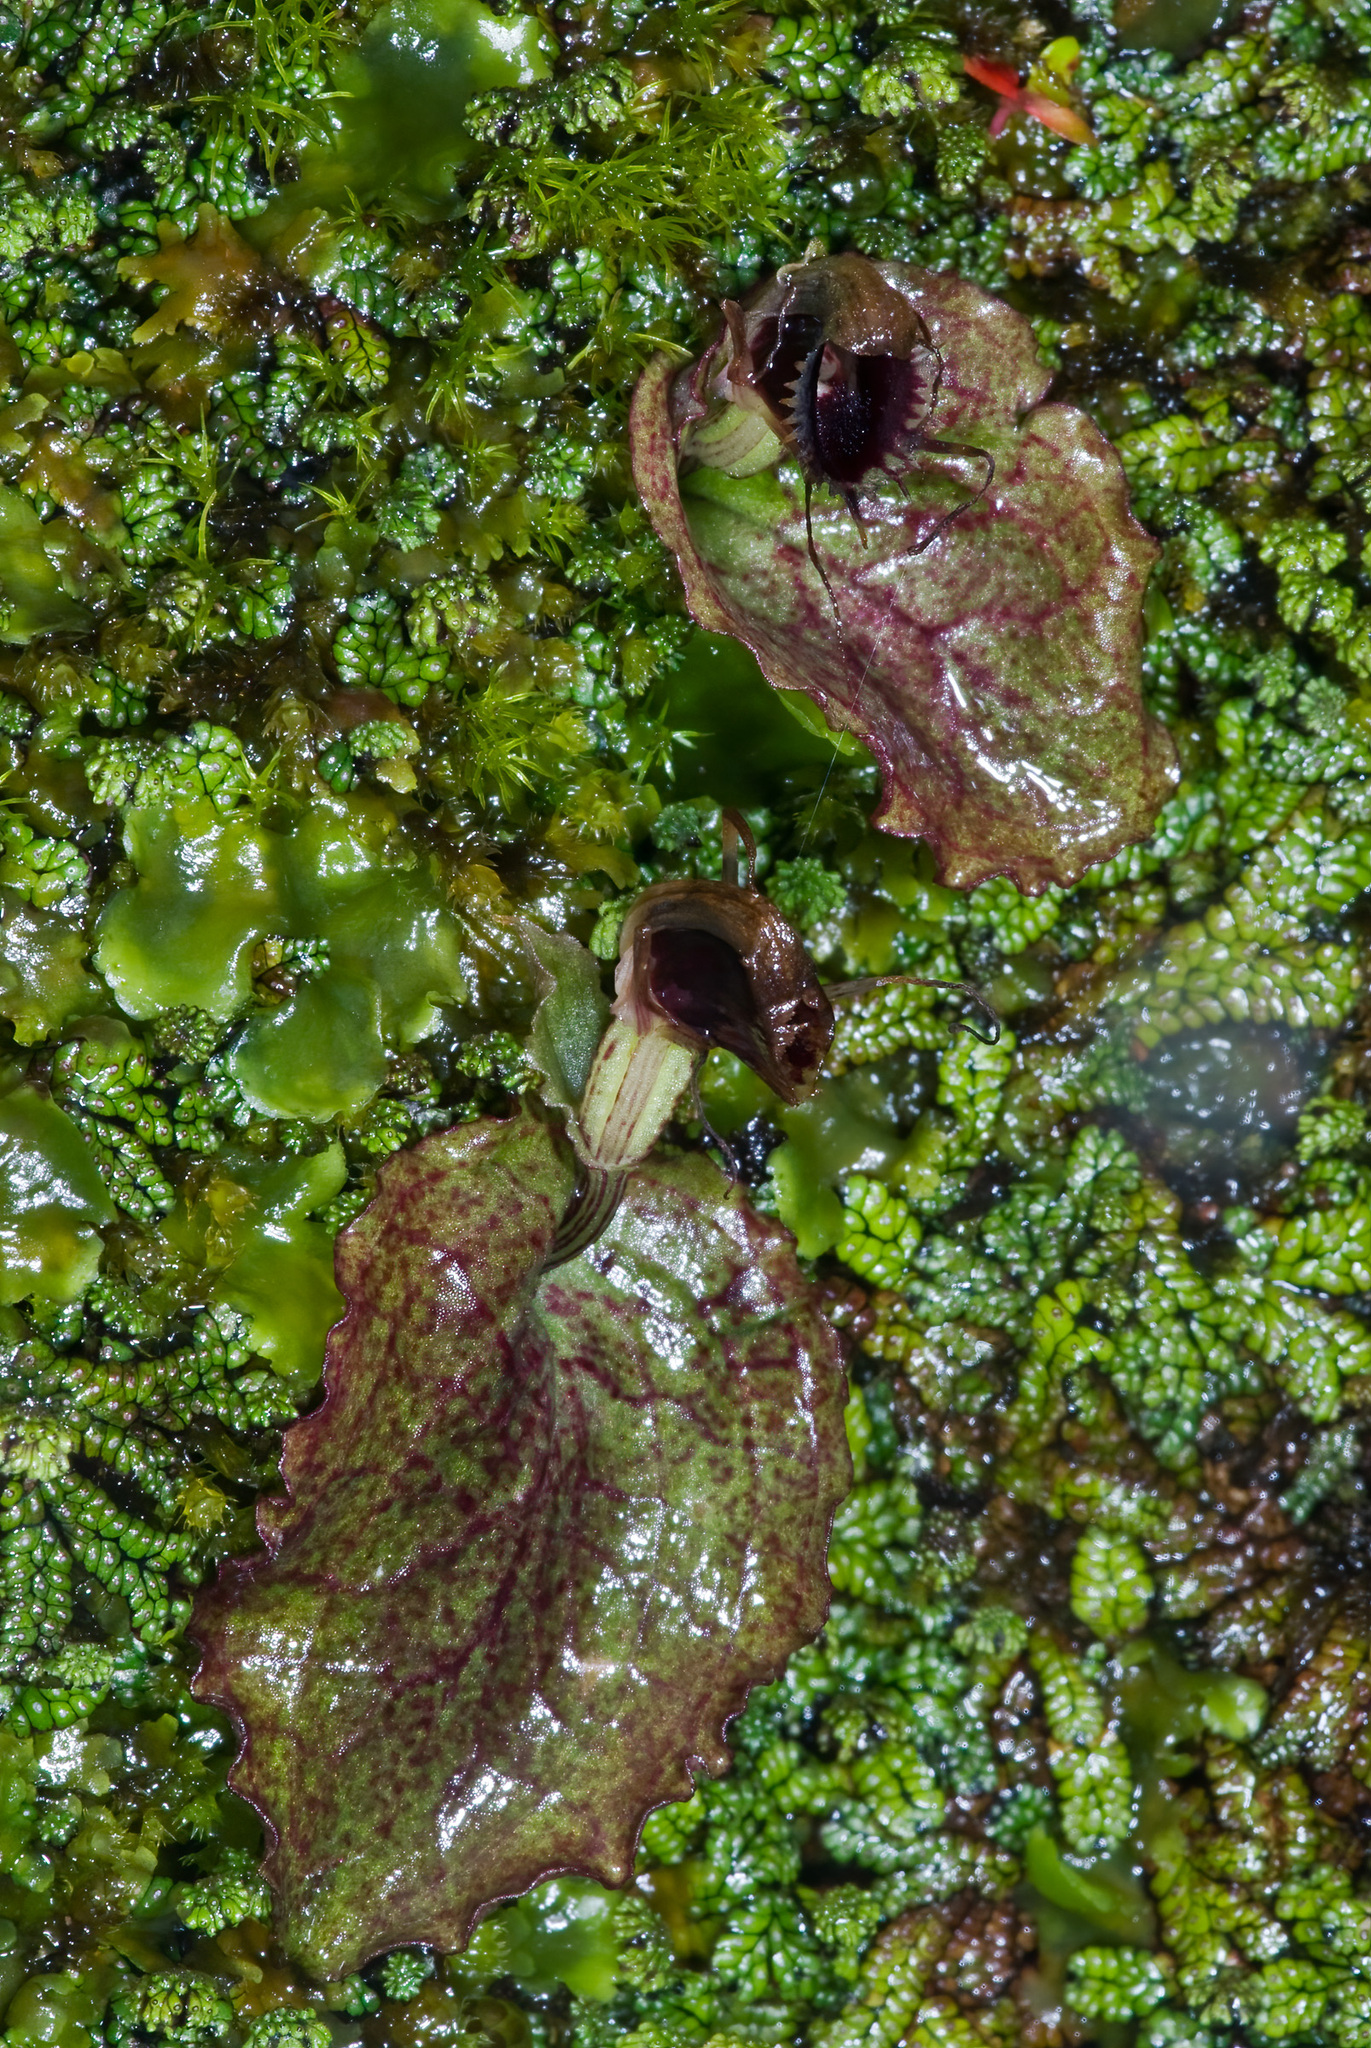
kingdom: Plantae
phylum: Tracheophyta
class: Liliopsida
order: Asparagales
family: Orchidaceae
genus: Corybas
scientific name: Corybas oblongus
